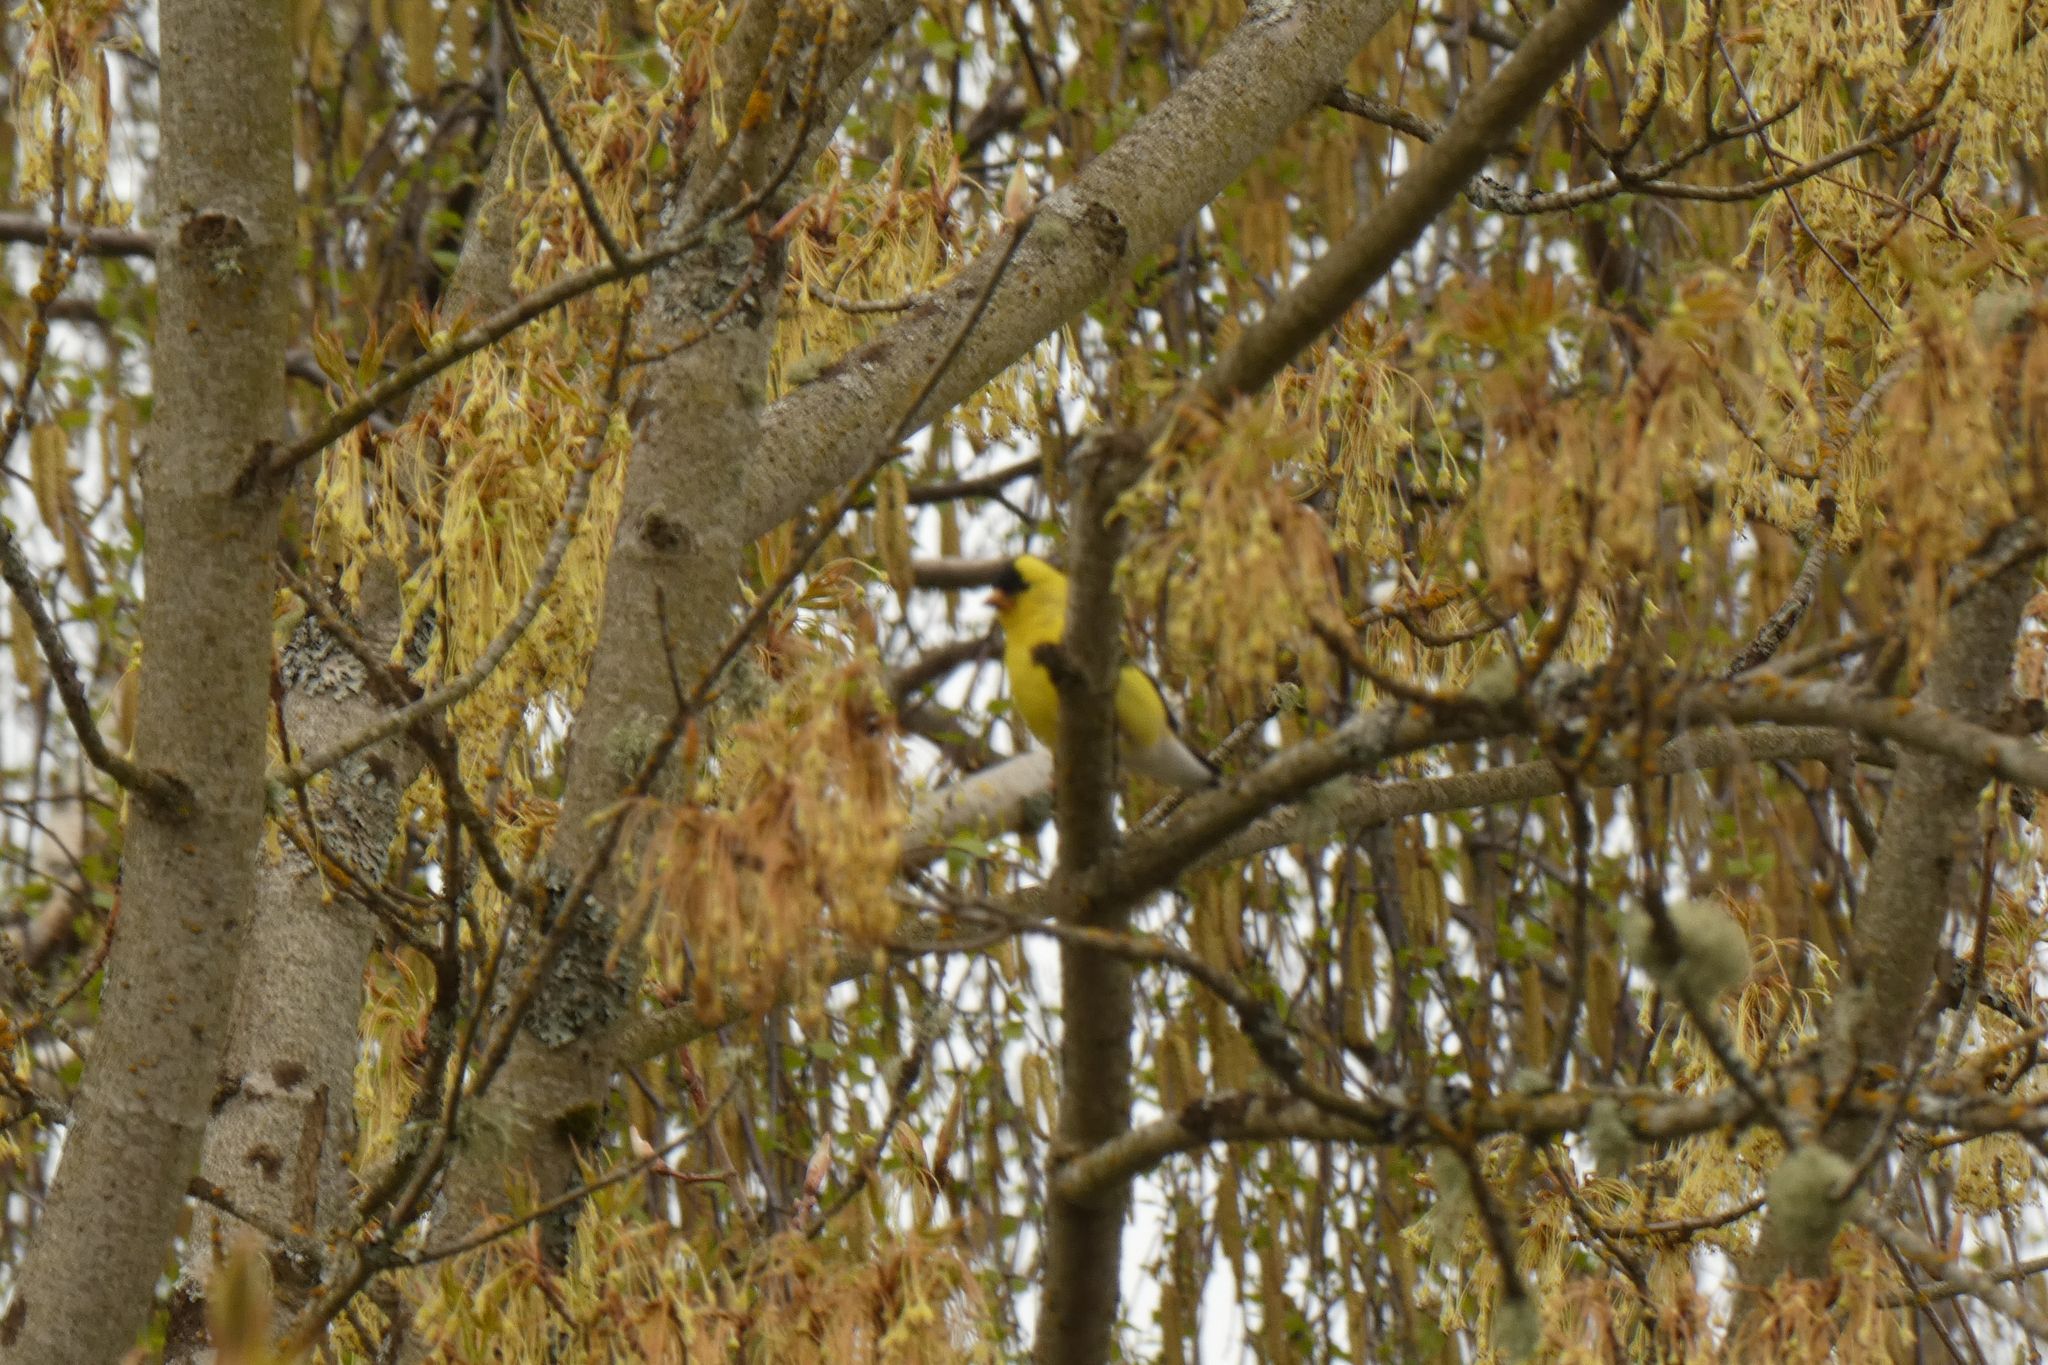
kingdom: Animalia
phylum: Chordata
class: Aves
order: Passeriformes
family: Fringillidae
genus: Spinus
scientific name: Spinus tristis
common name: American goldfinch
